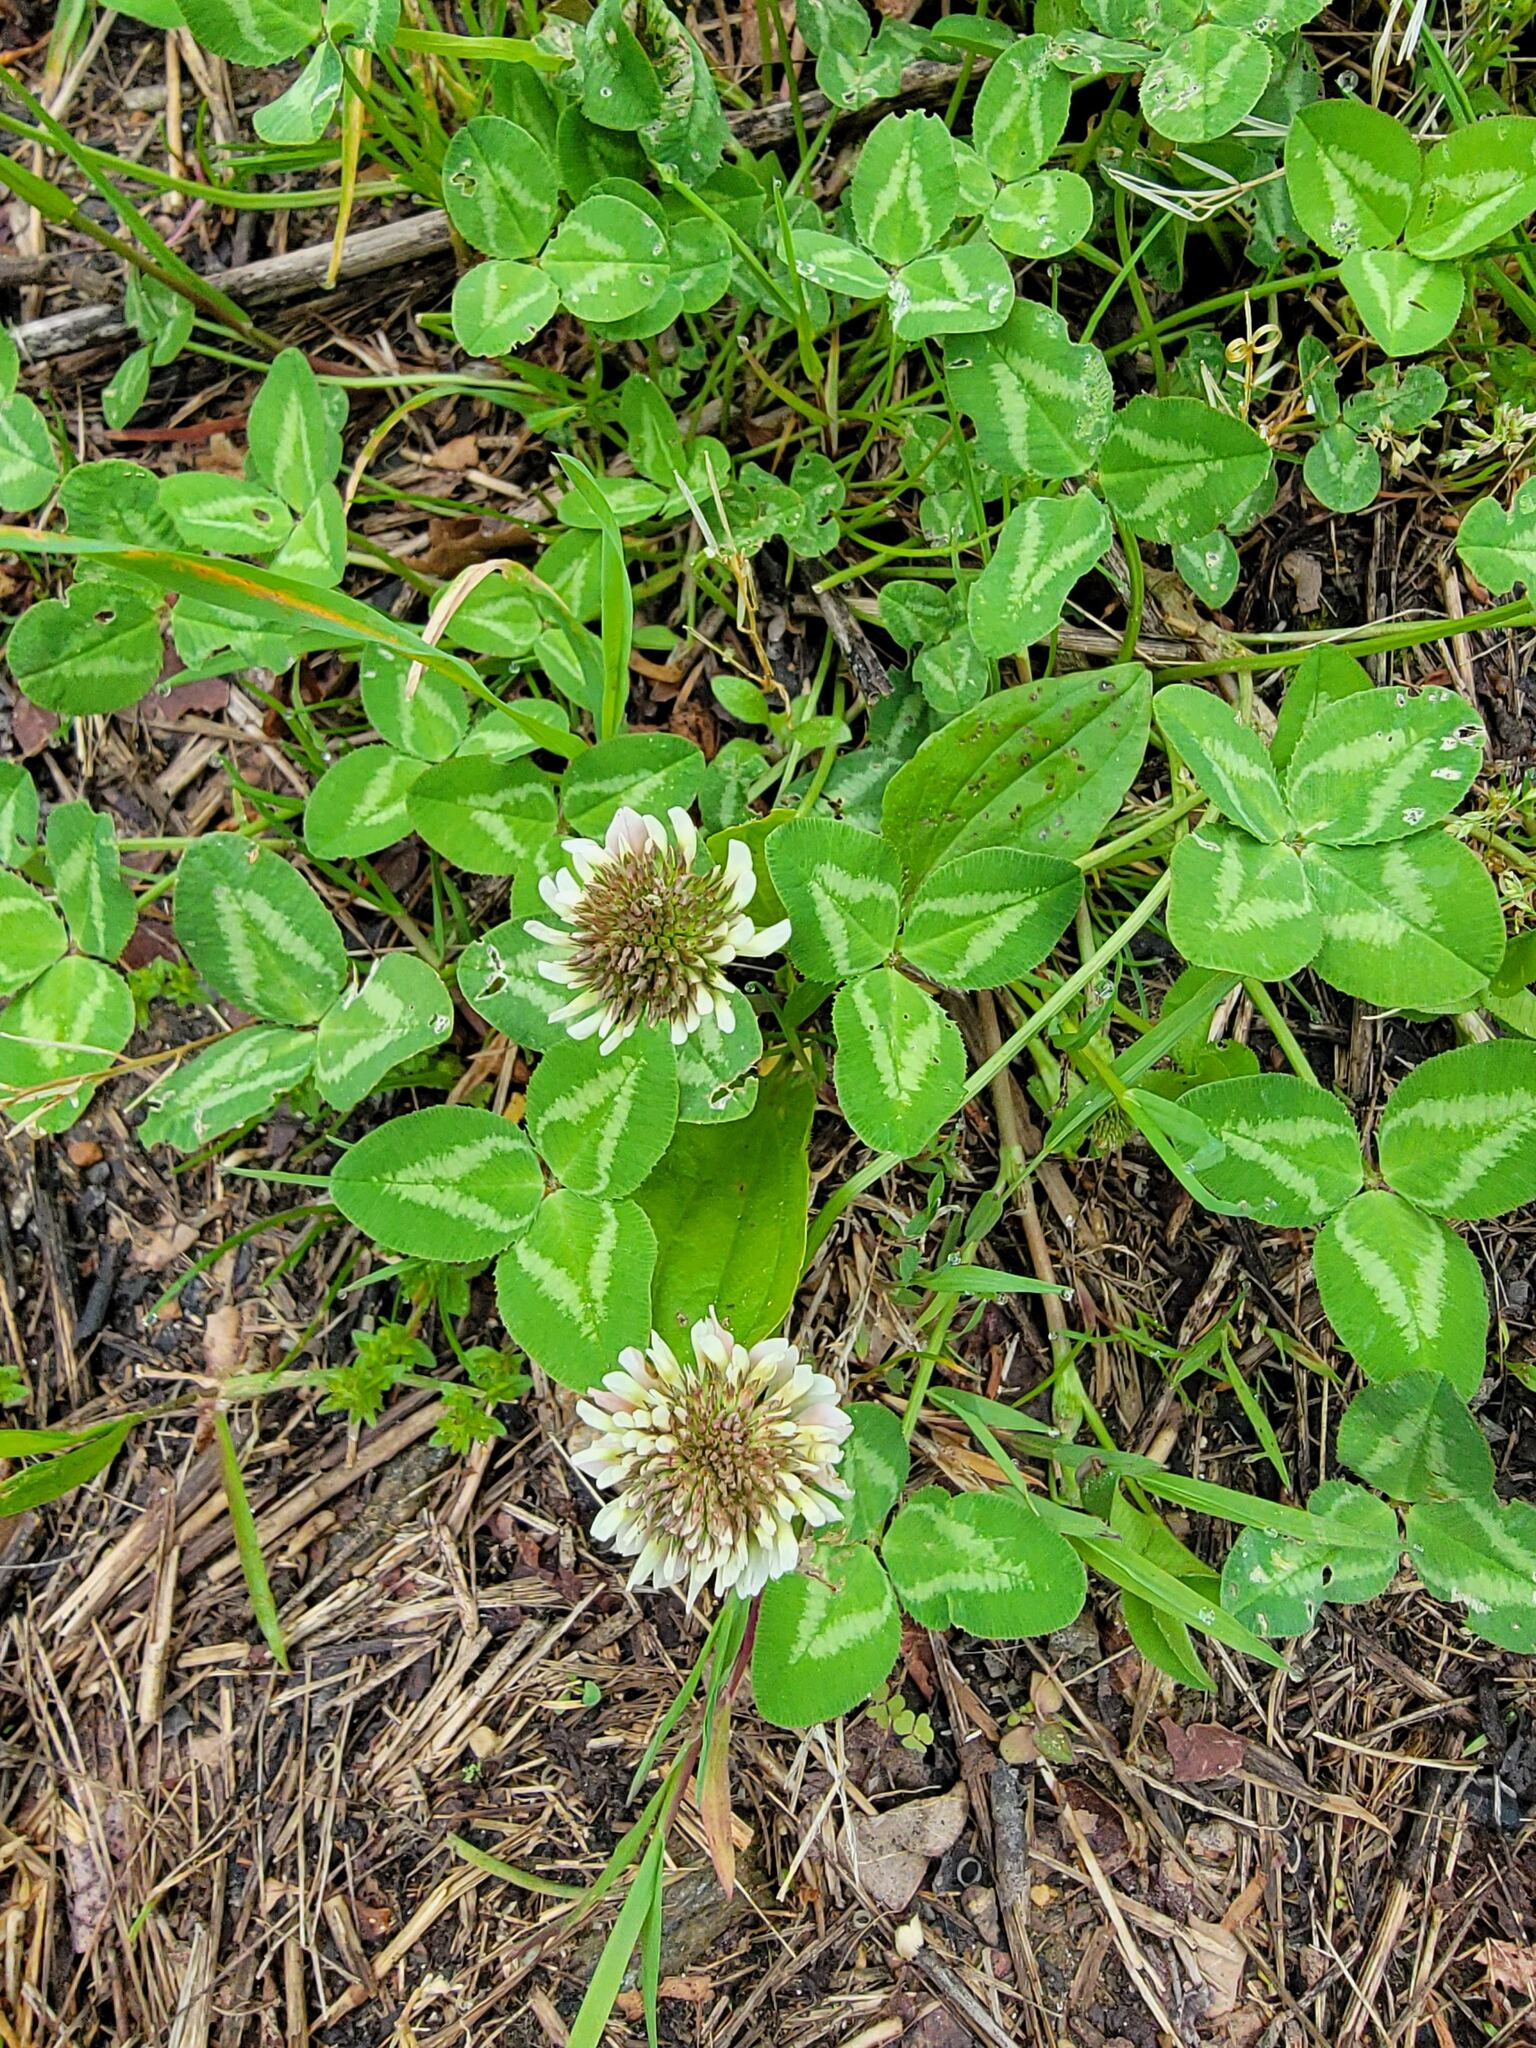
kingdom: Plantae
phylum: Tracheophyta
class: Magnoliopsida
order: Fabales
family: Fabaceae
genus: Trifolium
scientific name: Trifolium repens
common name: White clover
